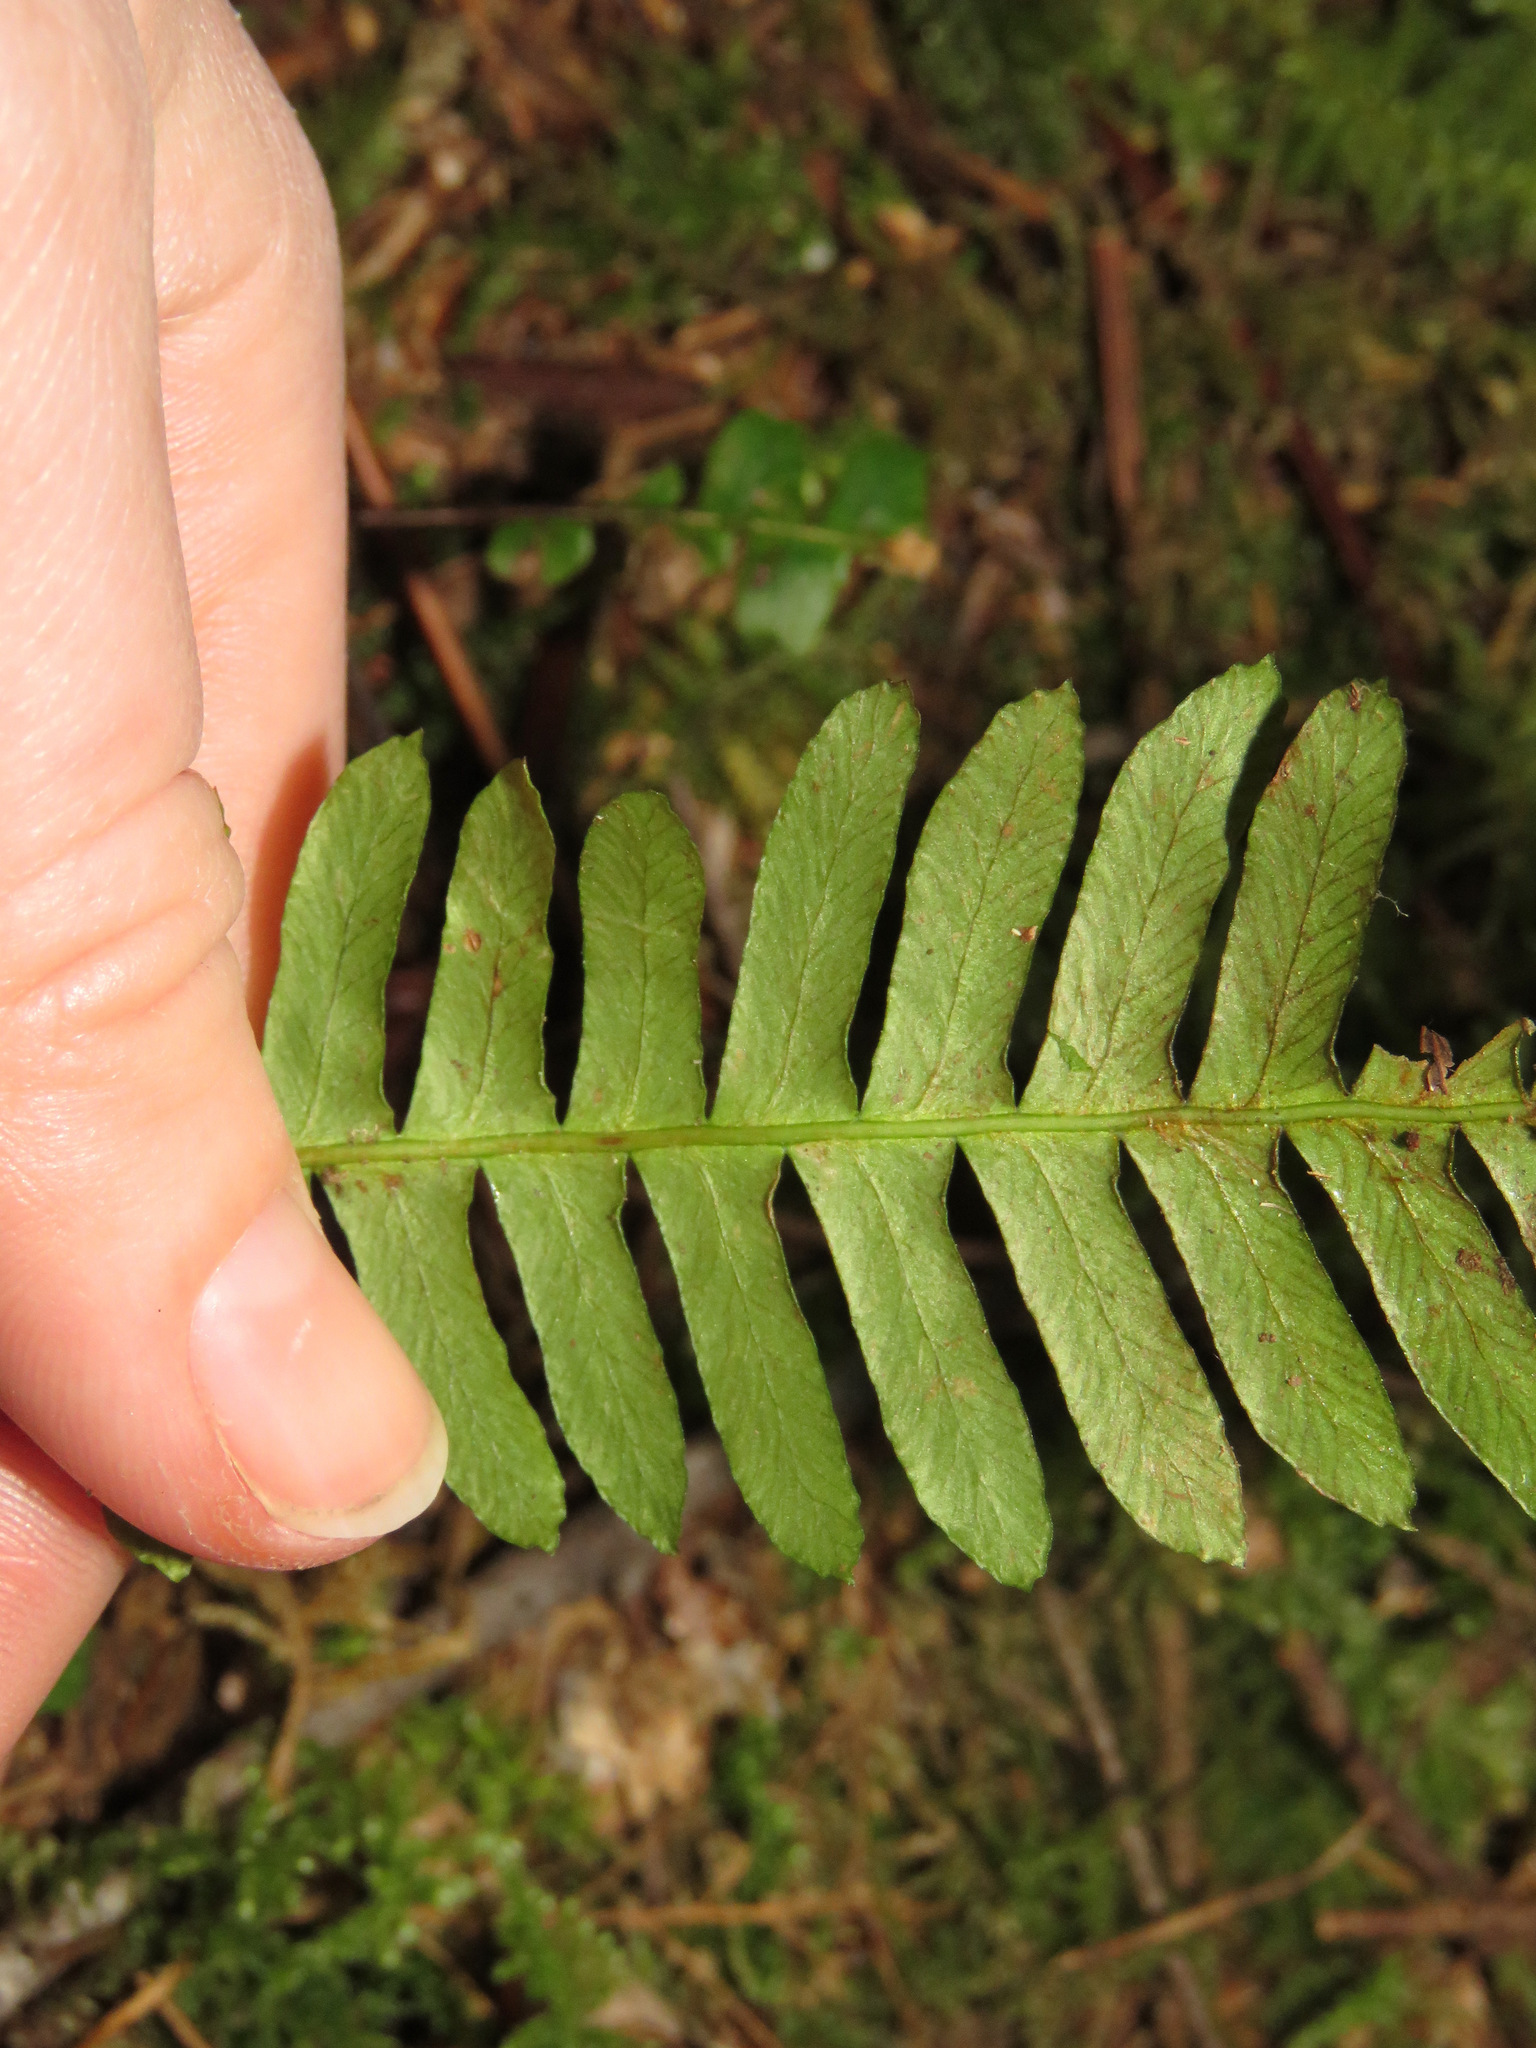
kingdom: Plantae
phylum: Tracheophyta
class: Polypodiopsida
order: Polypodiales
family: Blechnaceae
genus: Struthiopteris
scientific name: Struthiopteris spicant
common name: Deer fern
